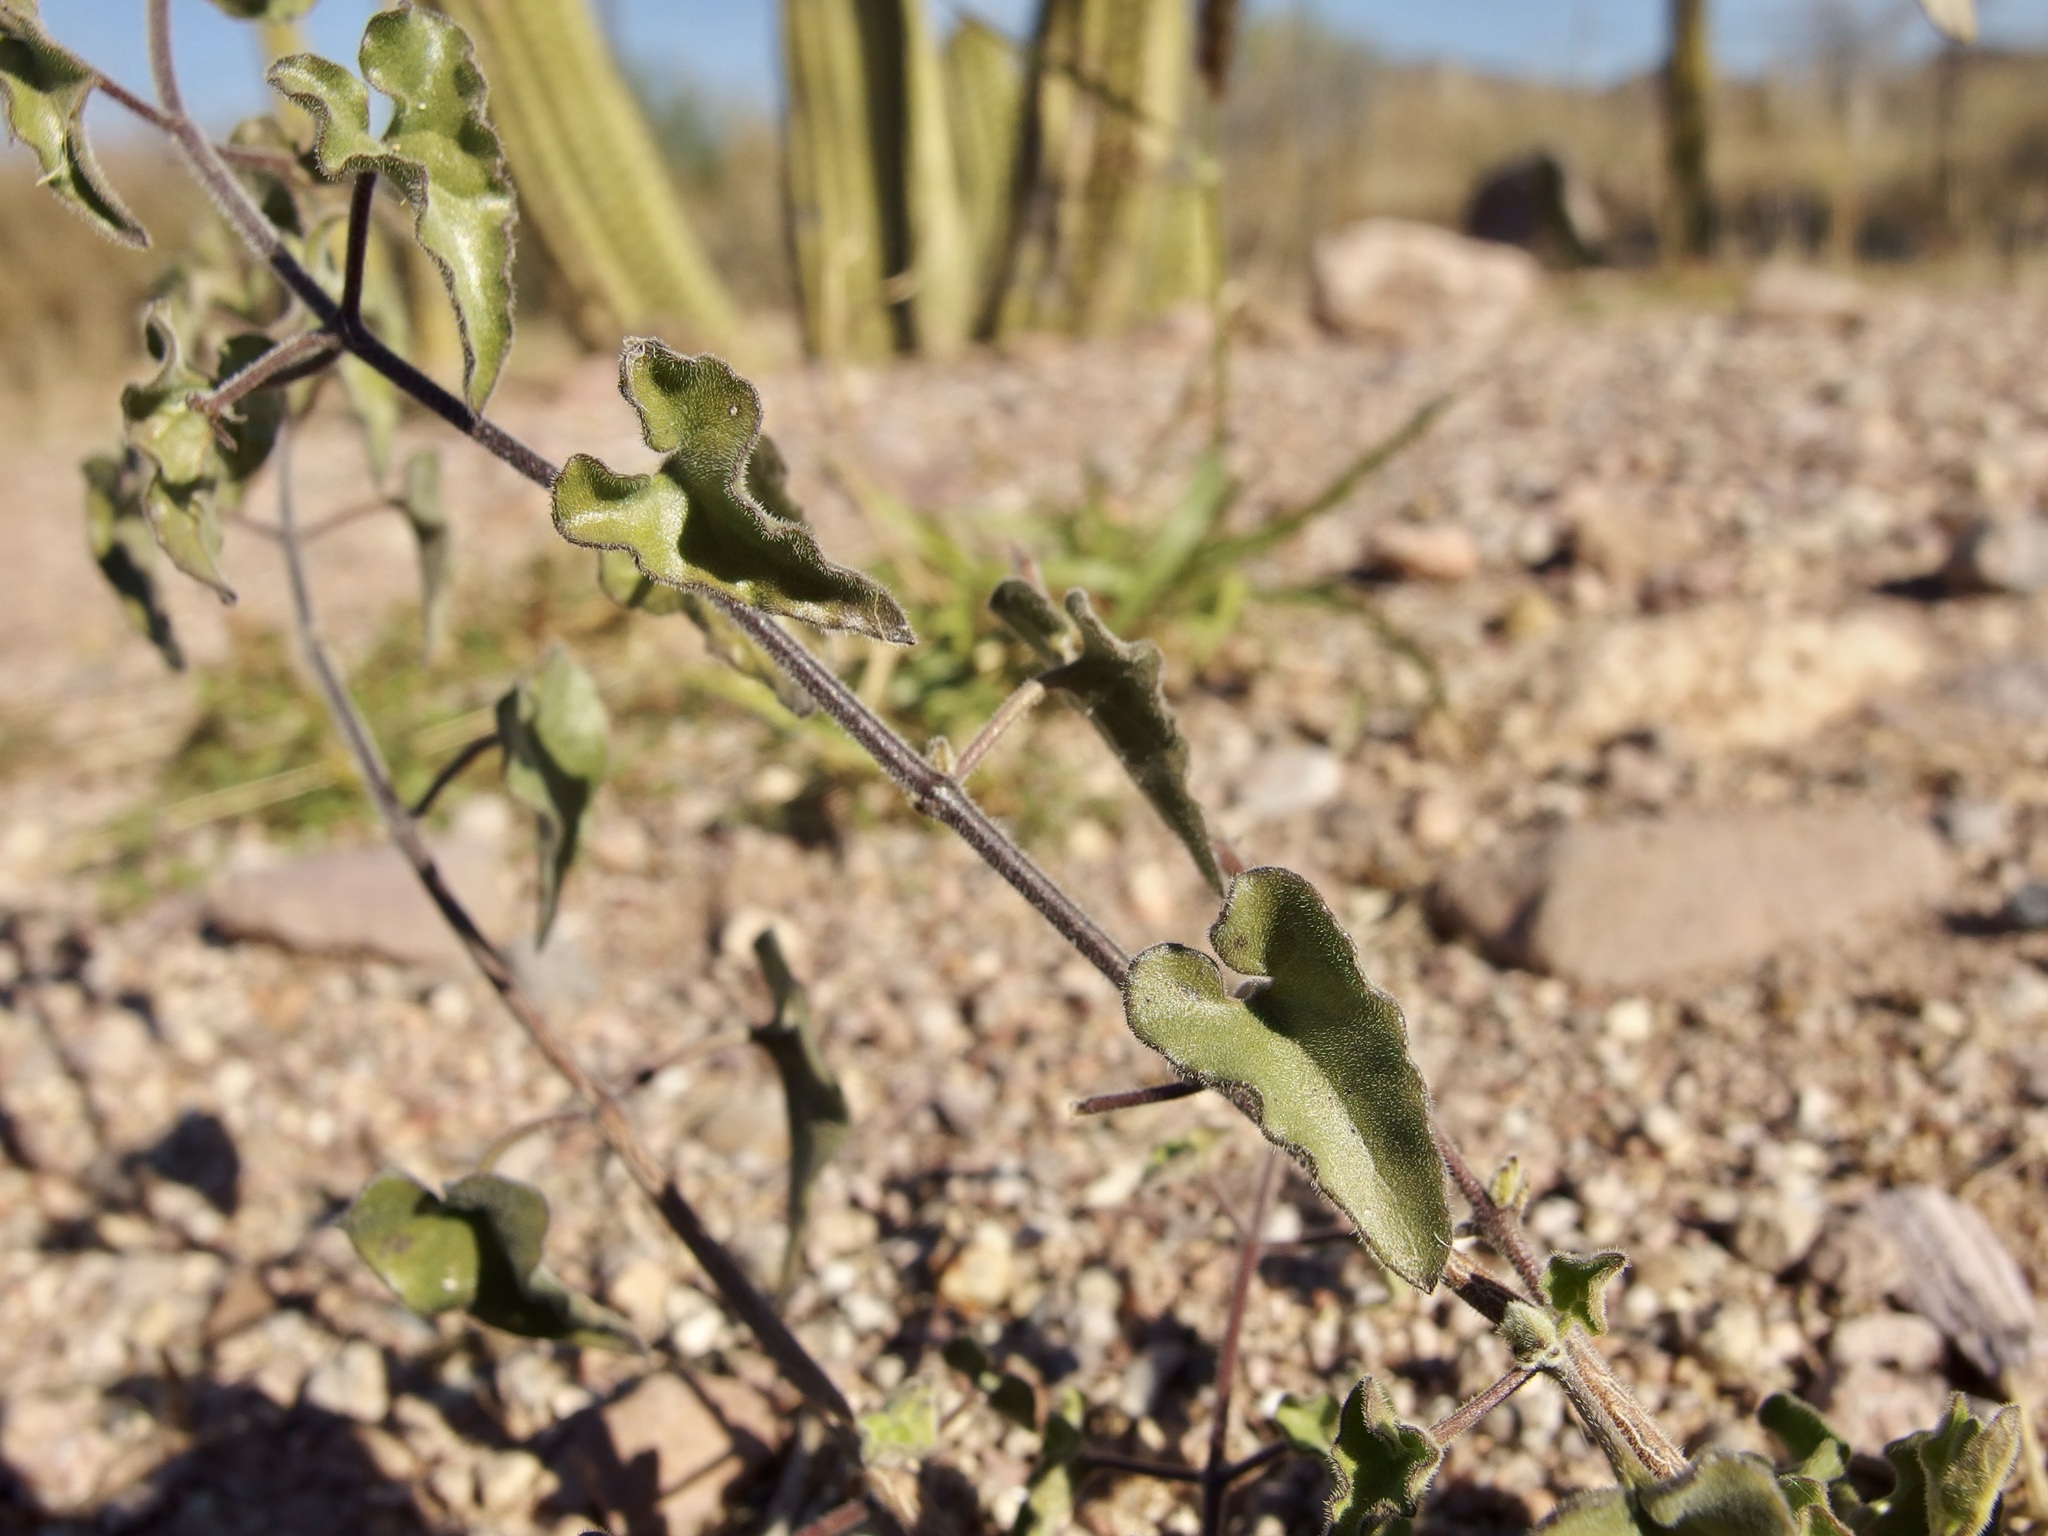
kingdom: Plantae
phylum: Tracheophyta
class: Magnoliopsida
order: Gentianales
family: Apocynaceae
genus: Metastelma
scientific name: Metastelma pringlei
